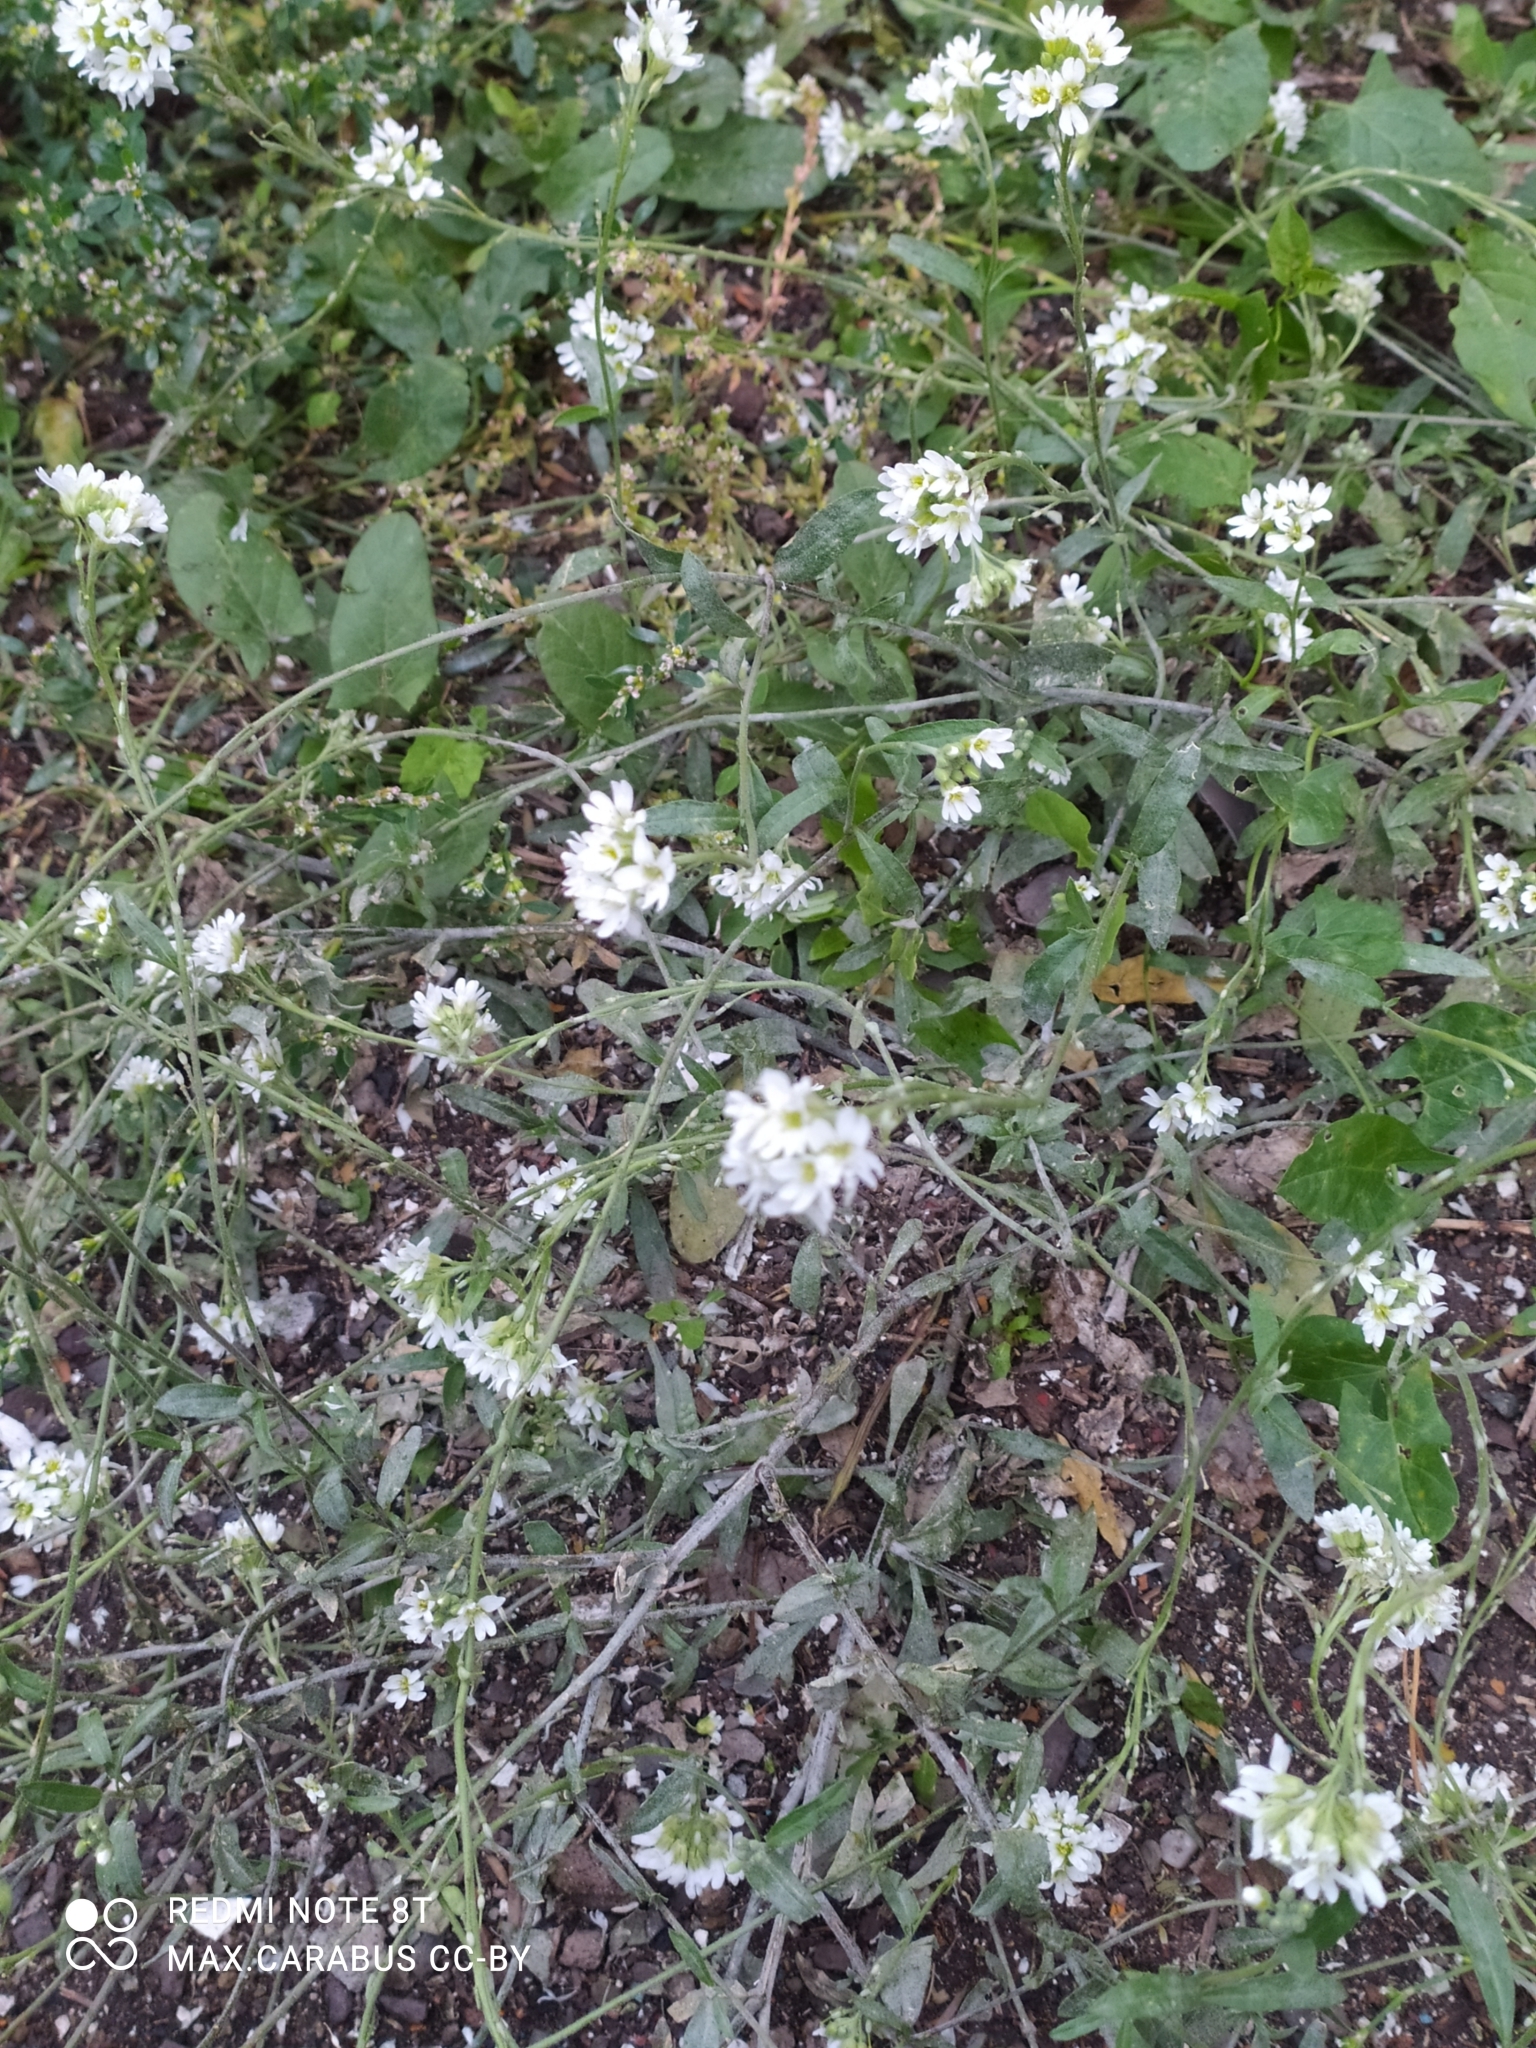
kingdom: Plantae
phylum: Tracheophyta
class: Magnoliopsida
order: Brassicales
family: Brassicaceae
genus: Berteroa
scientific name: Berteroa incana
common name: Hoary alison
